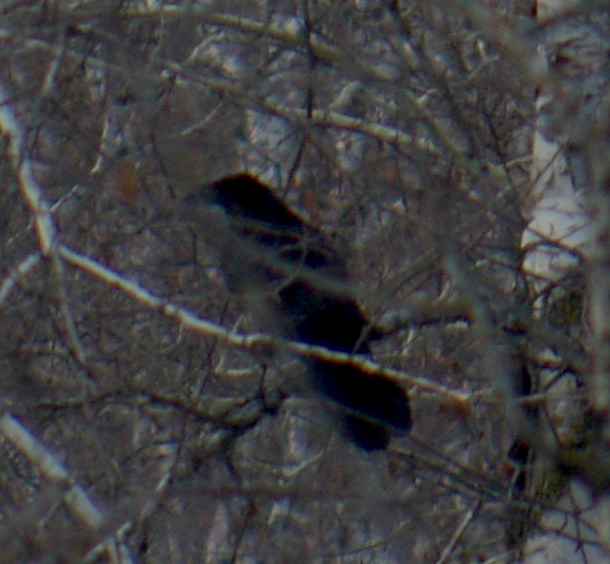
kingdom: Animalia
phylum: Chordata
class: Aves
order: Passeriformes
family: Corvidae
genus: Corvus
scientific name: Corvus corax
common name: Common raven
